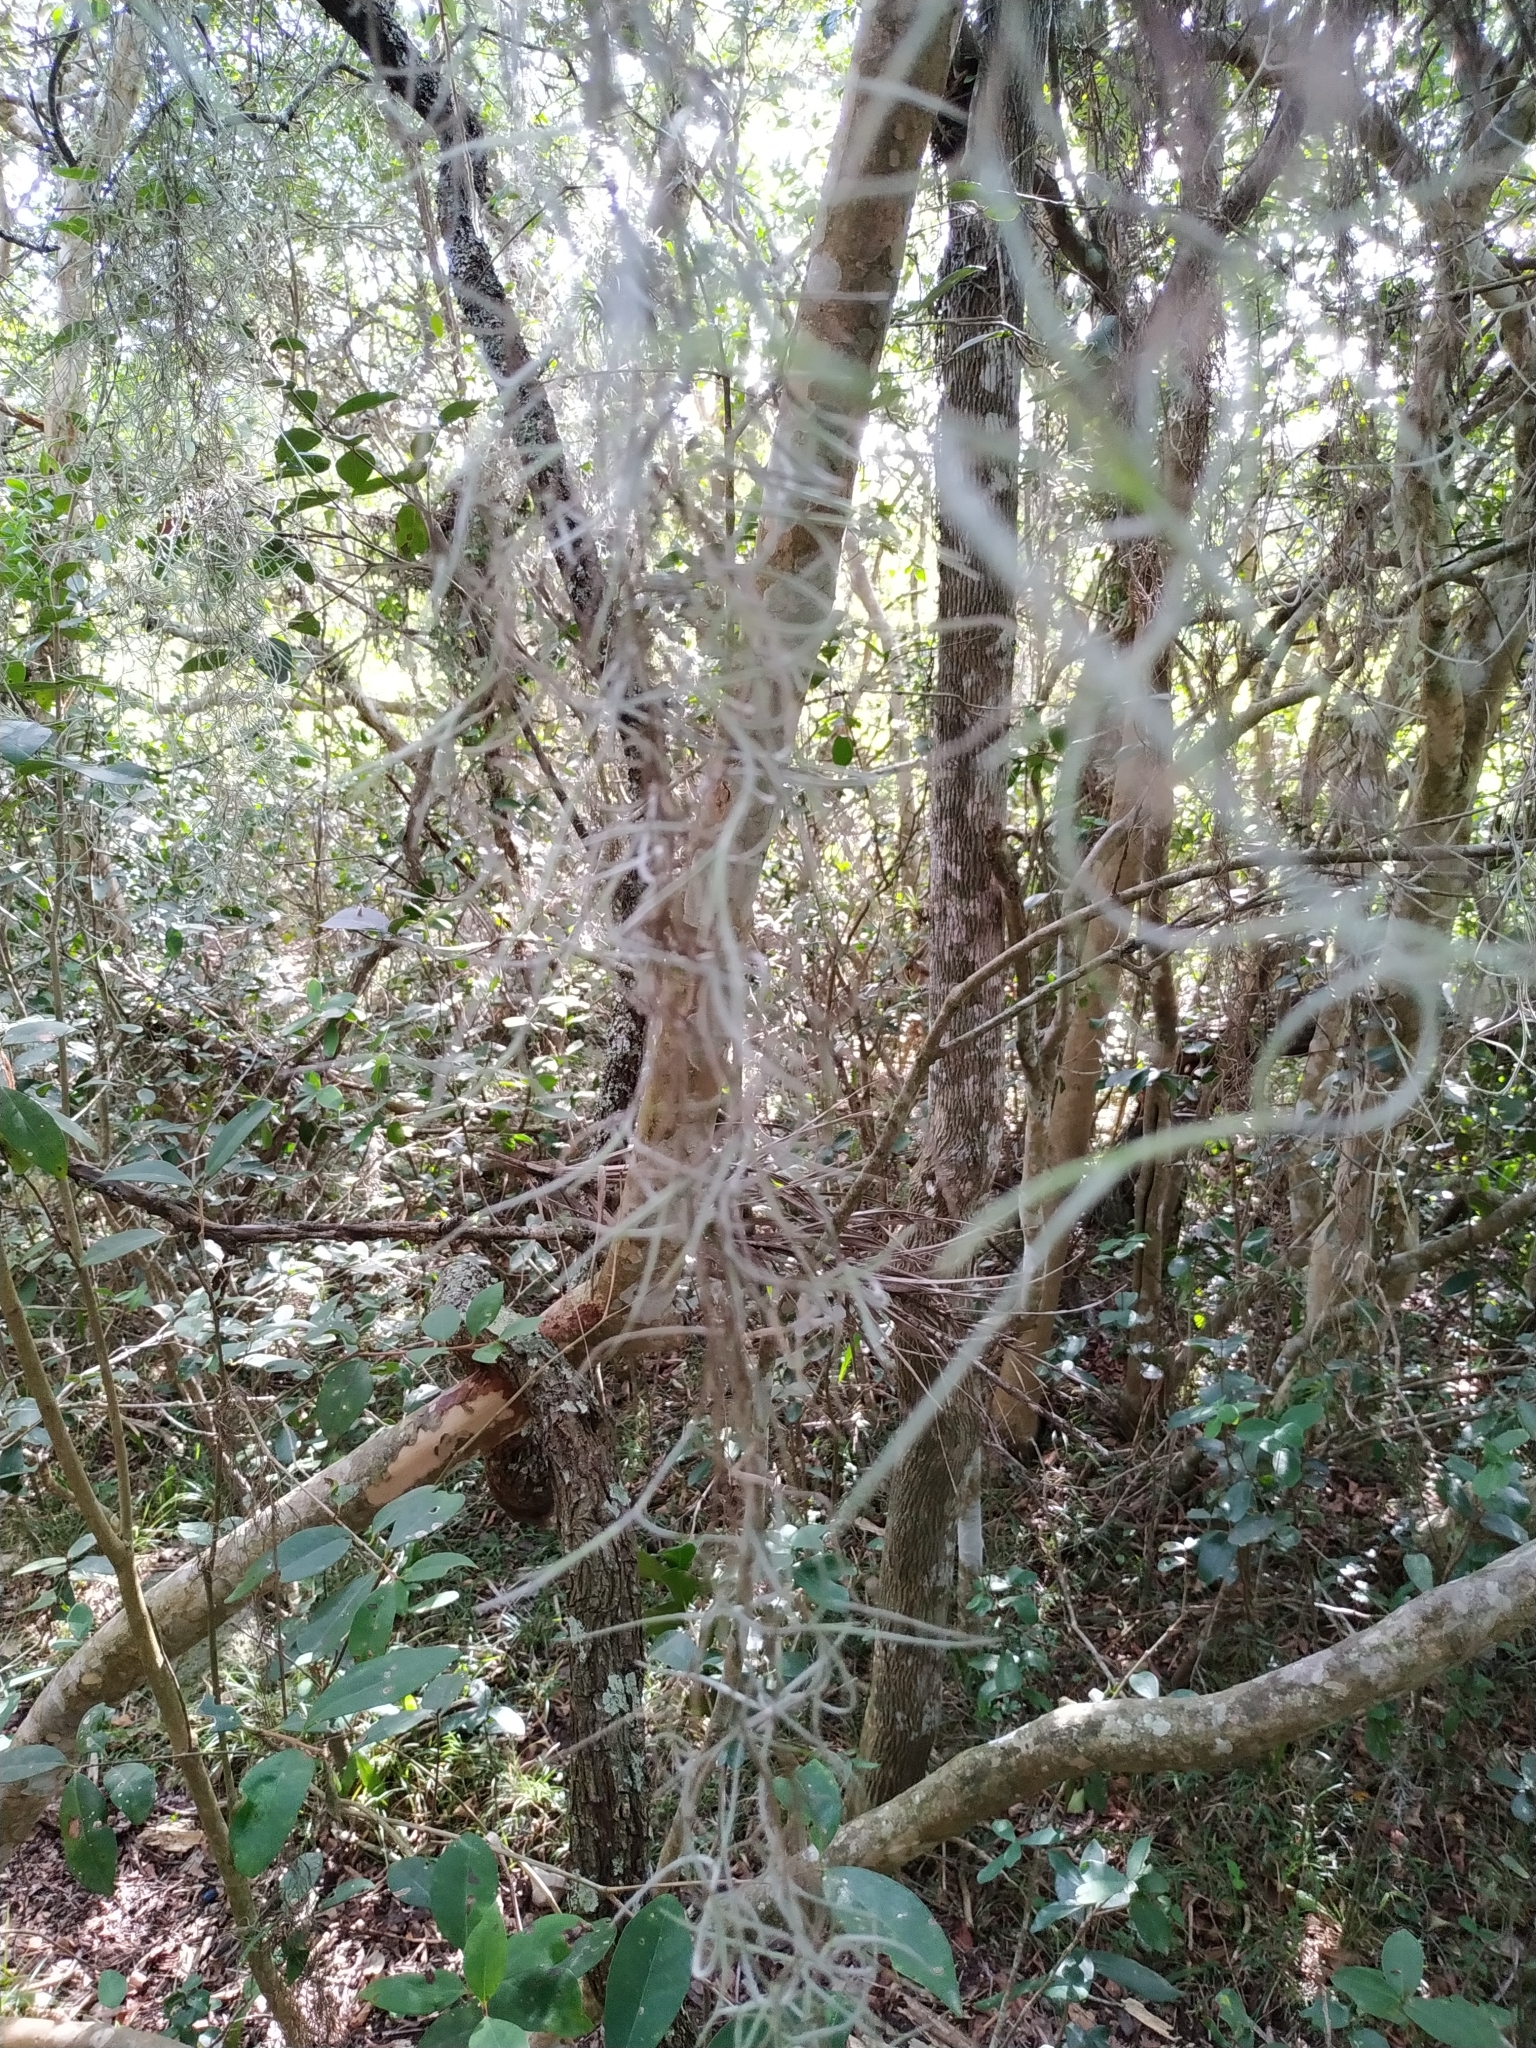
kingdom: Plantae
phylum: Tracheophyta
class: Liliopsida
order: Poales
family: Bromeliaceae
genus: Tillandsia
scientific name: Tillandsia usneoides
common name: Spanish moss
